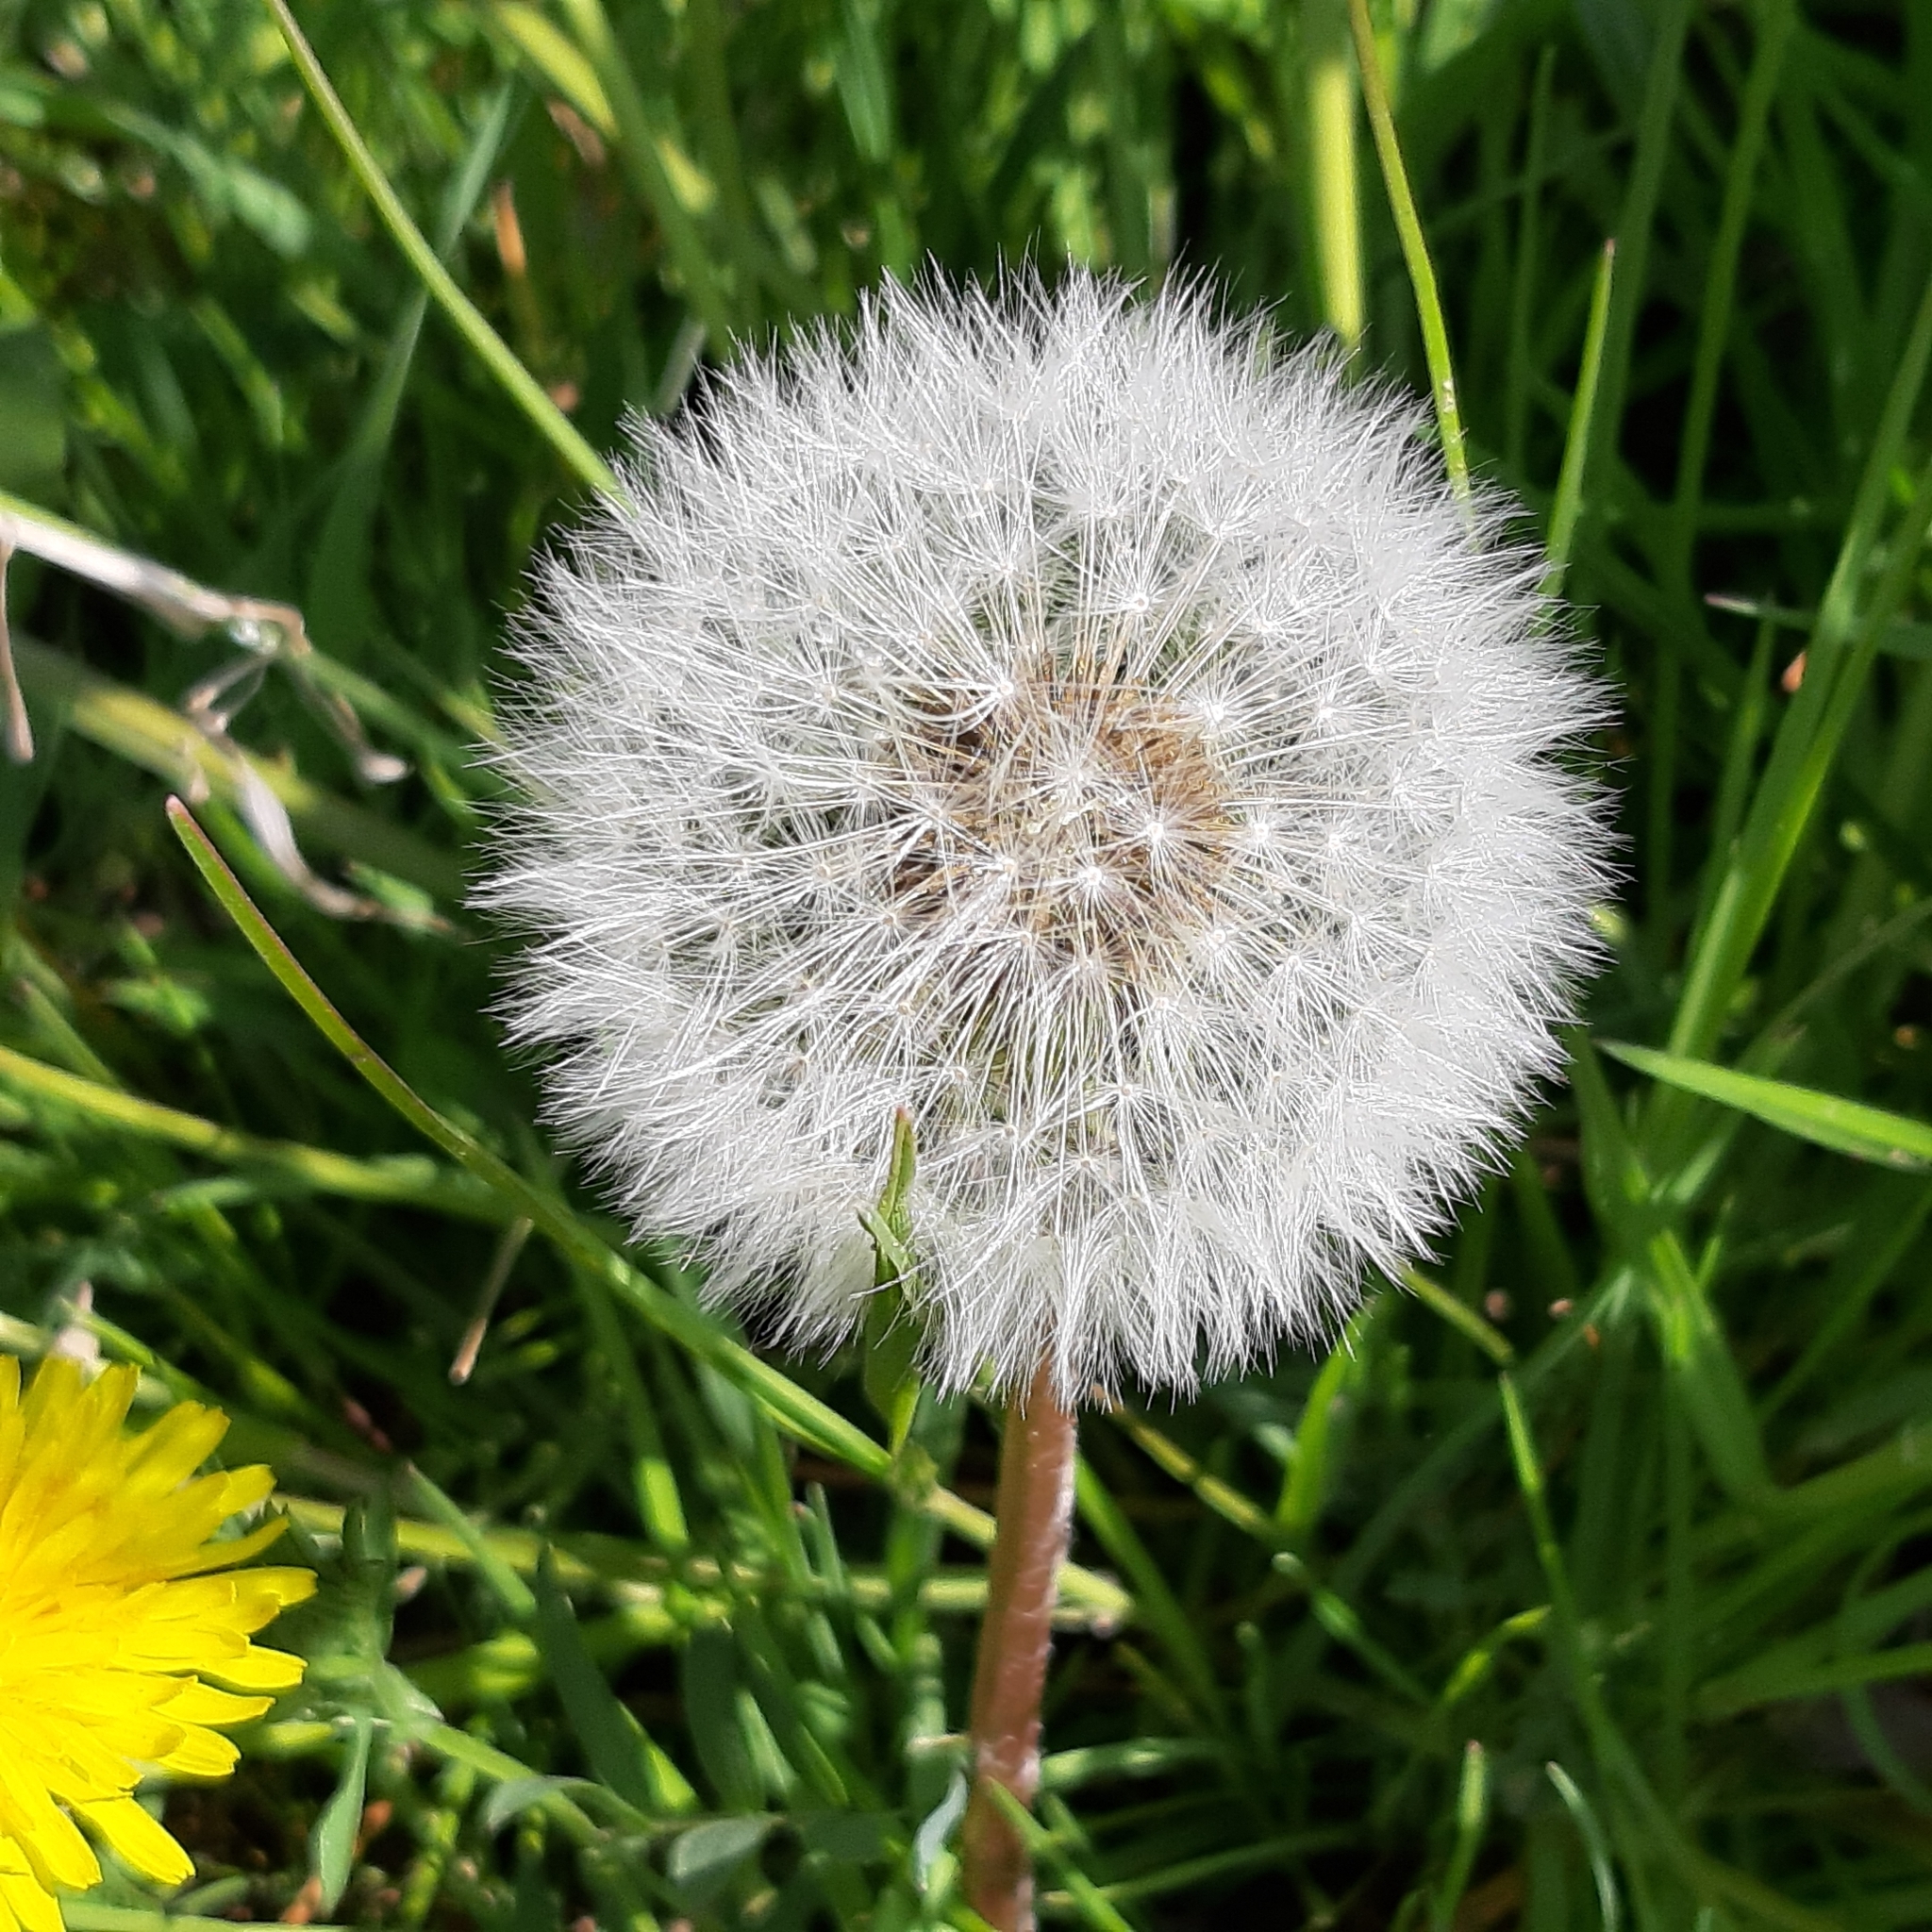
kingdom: Plantae
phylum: Tracheophyta
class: Magnoliopsida
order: Asterales
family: Asteraceae
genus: Taraxacum
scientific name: Taraxacum officinale
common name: Common dandelion
